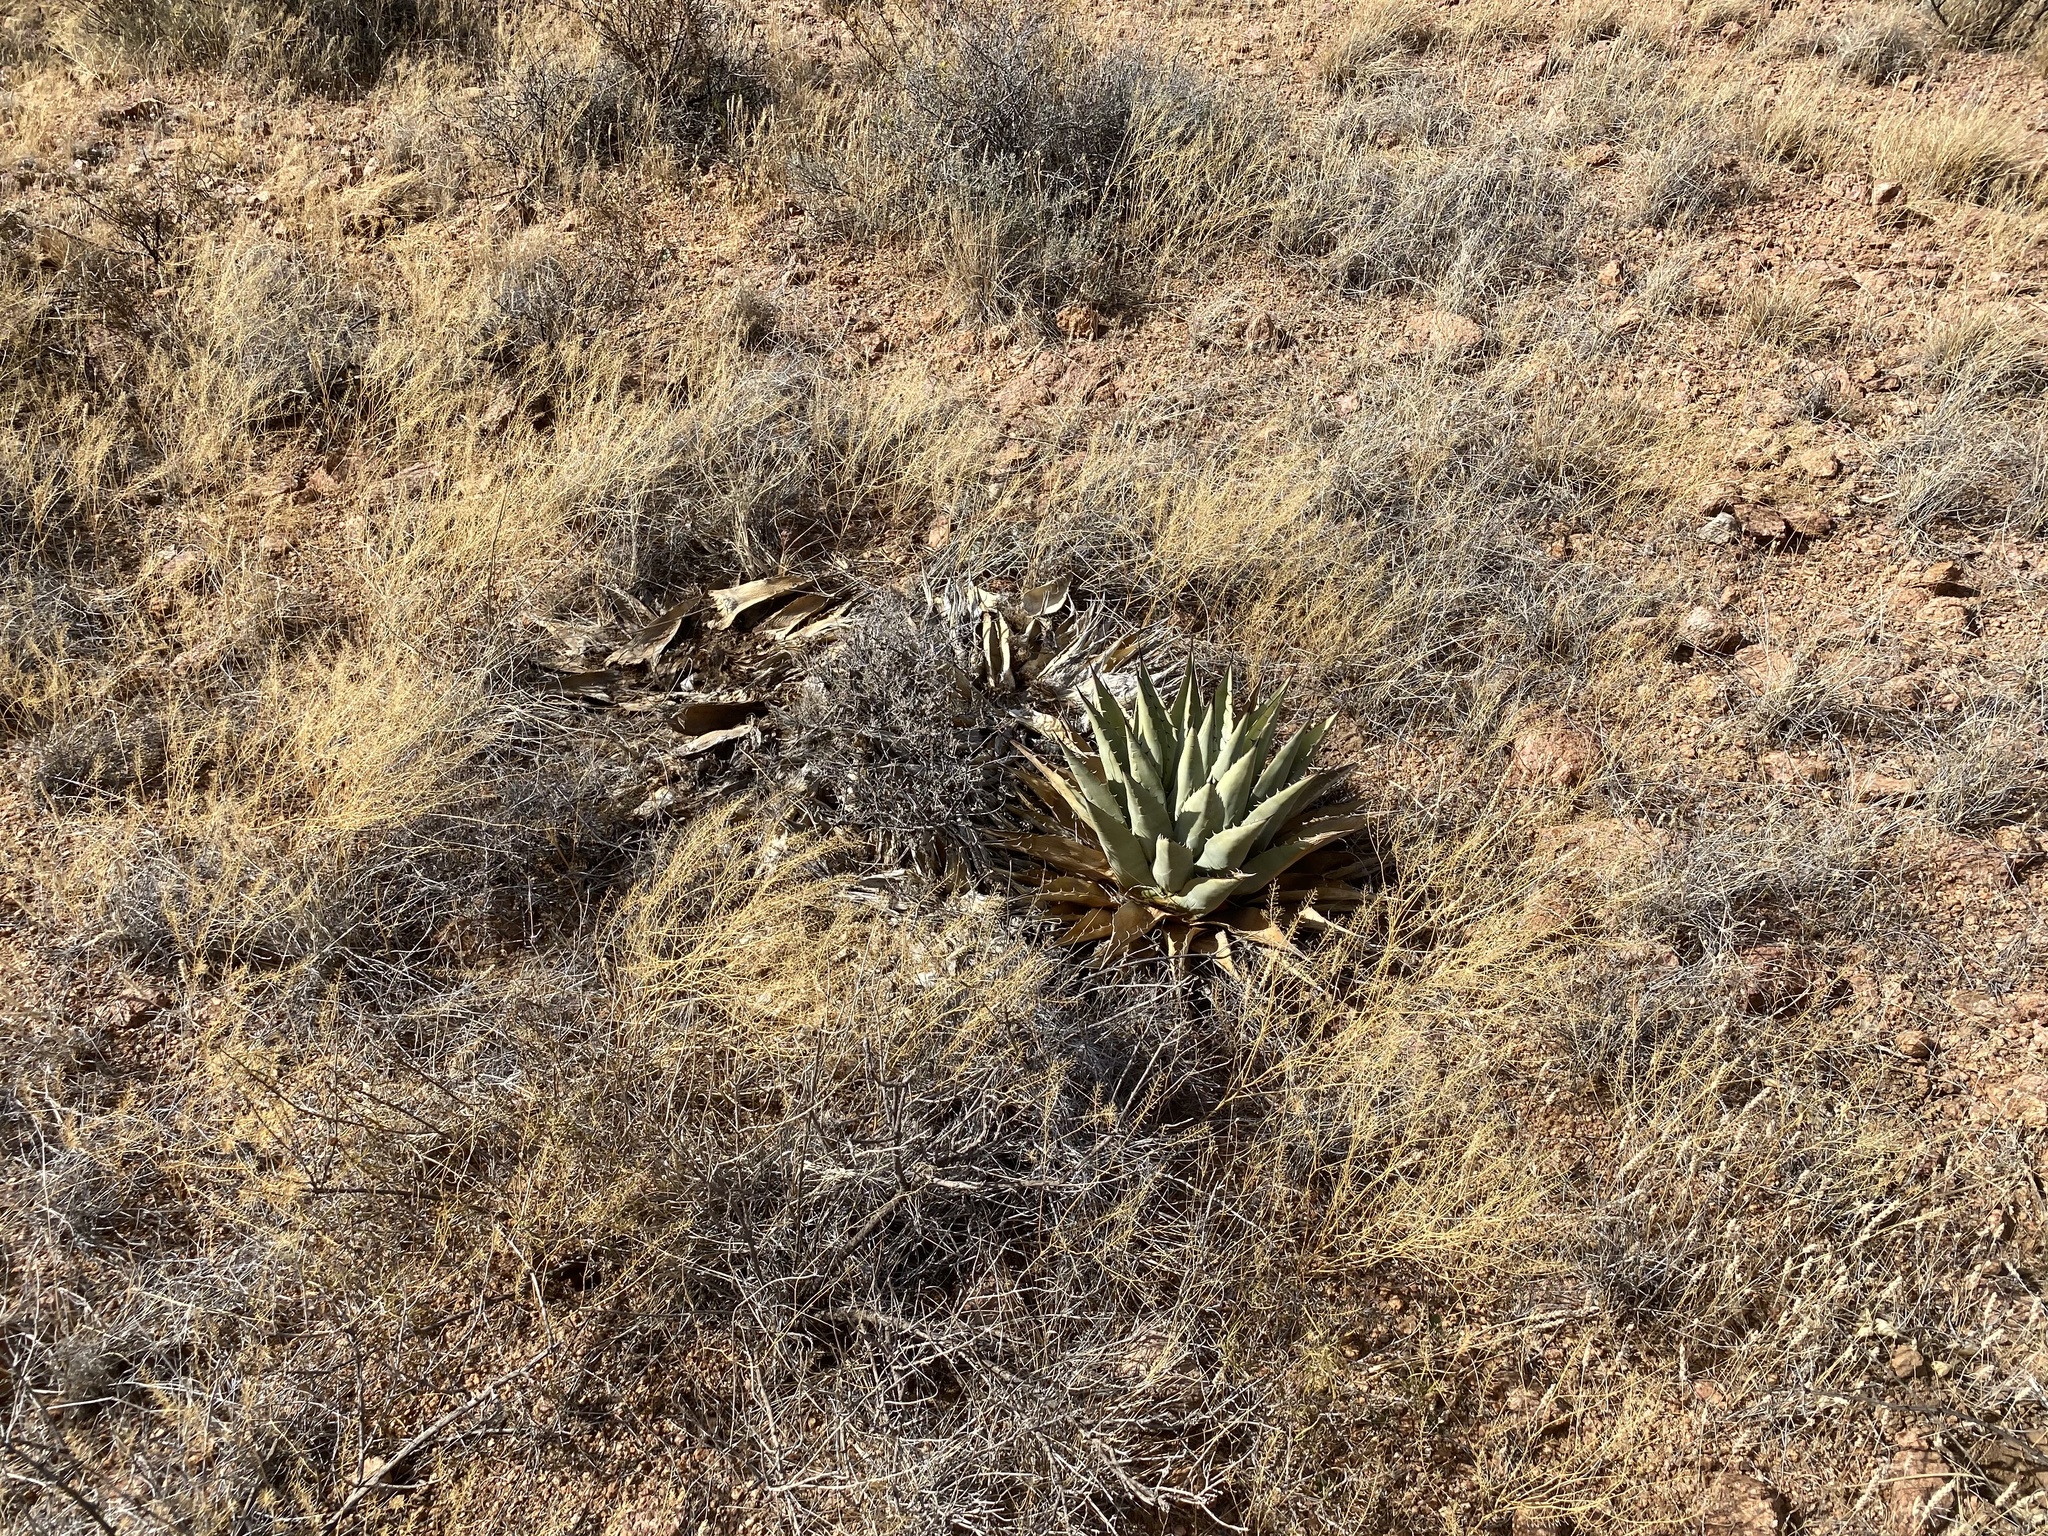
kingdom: Plantae
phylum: Tracheophyta
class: Liliopsida
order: Asparagales
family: Asparagaceae
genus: Agave
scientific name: Agave parryi
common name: Parry's agave
